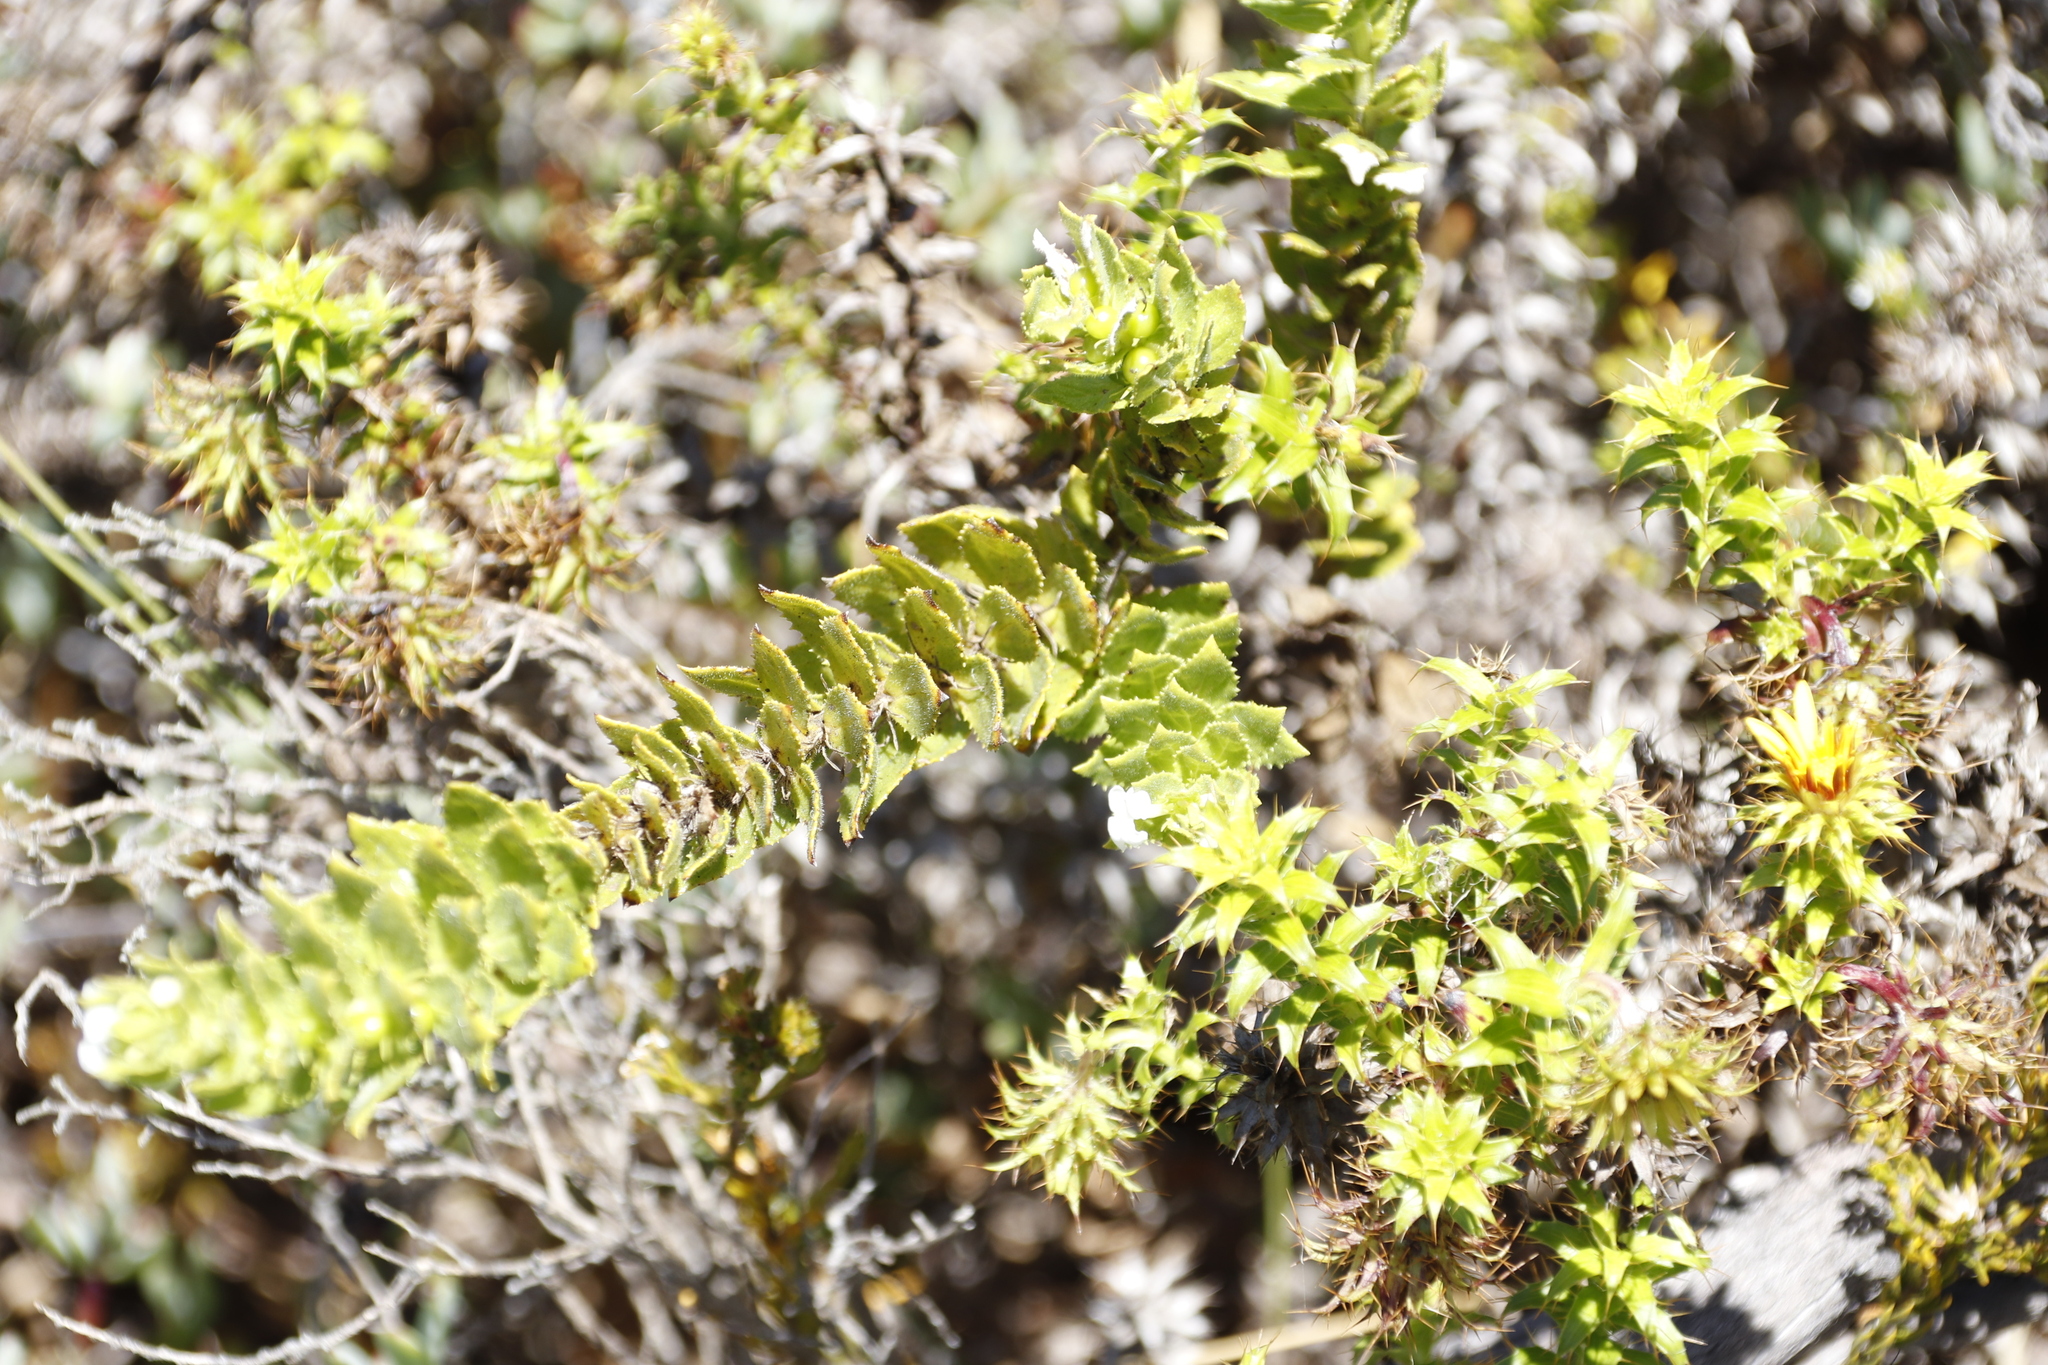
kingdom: Plantae
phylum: Tracheophyta
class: Magnoliopsida
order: Lamiales
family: Scrophulariaceae
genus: Oftia
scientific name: Oftia africana
